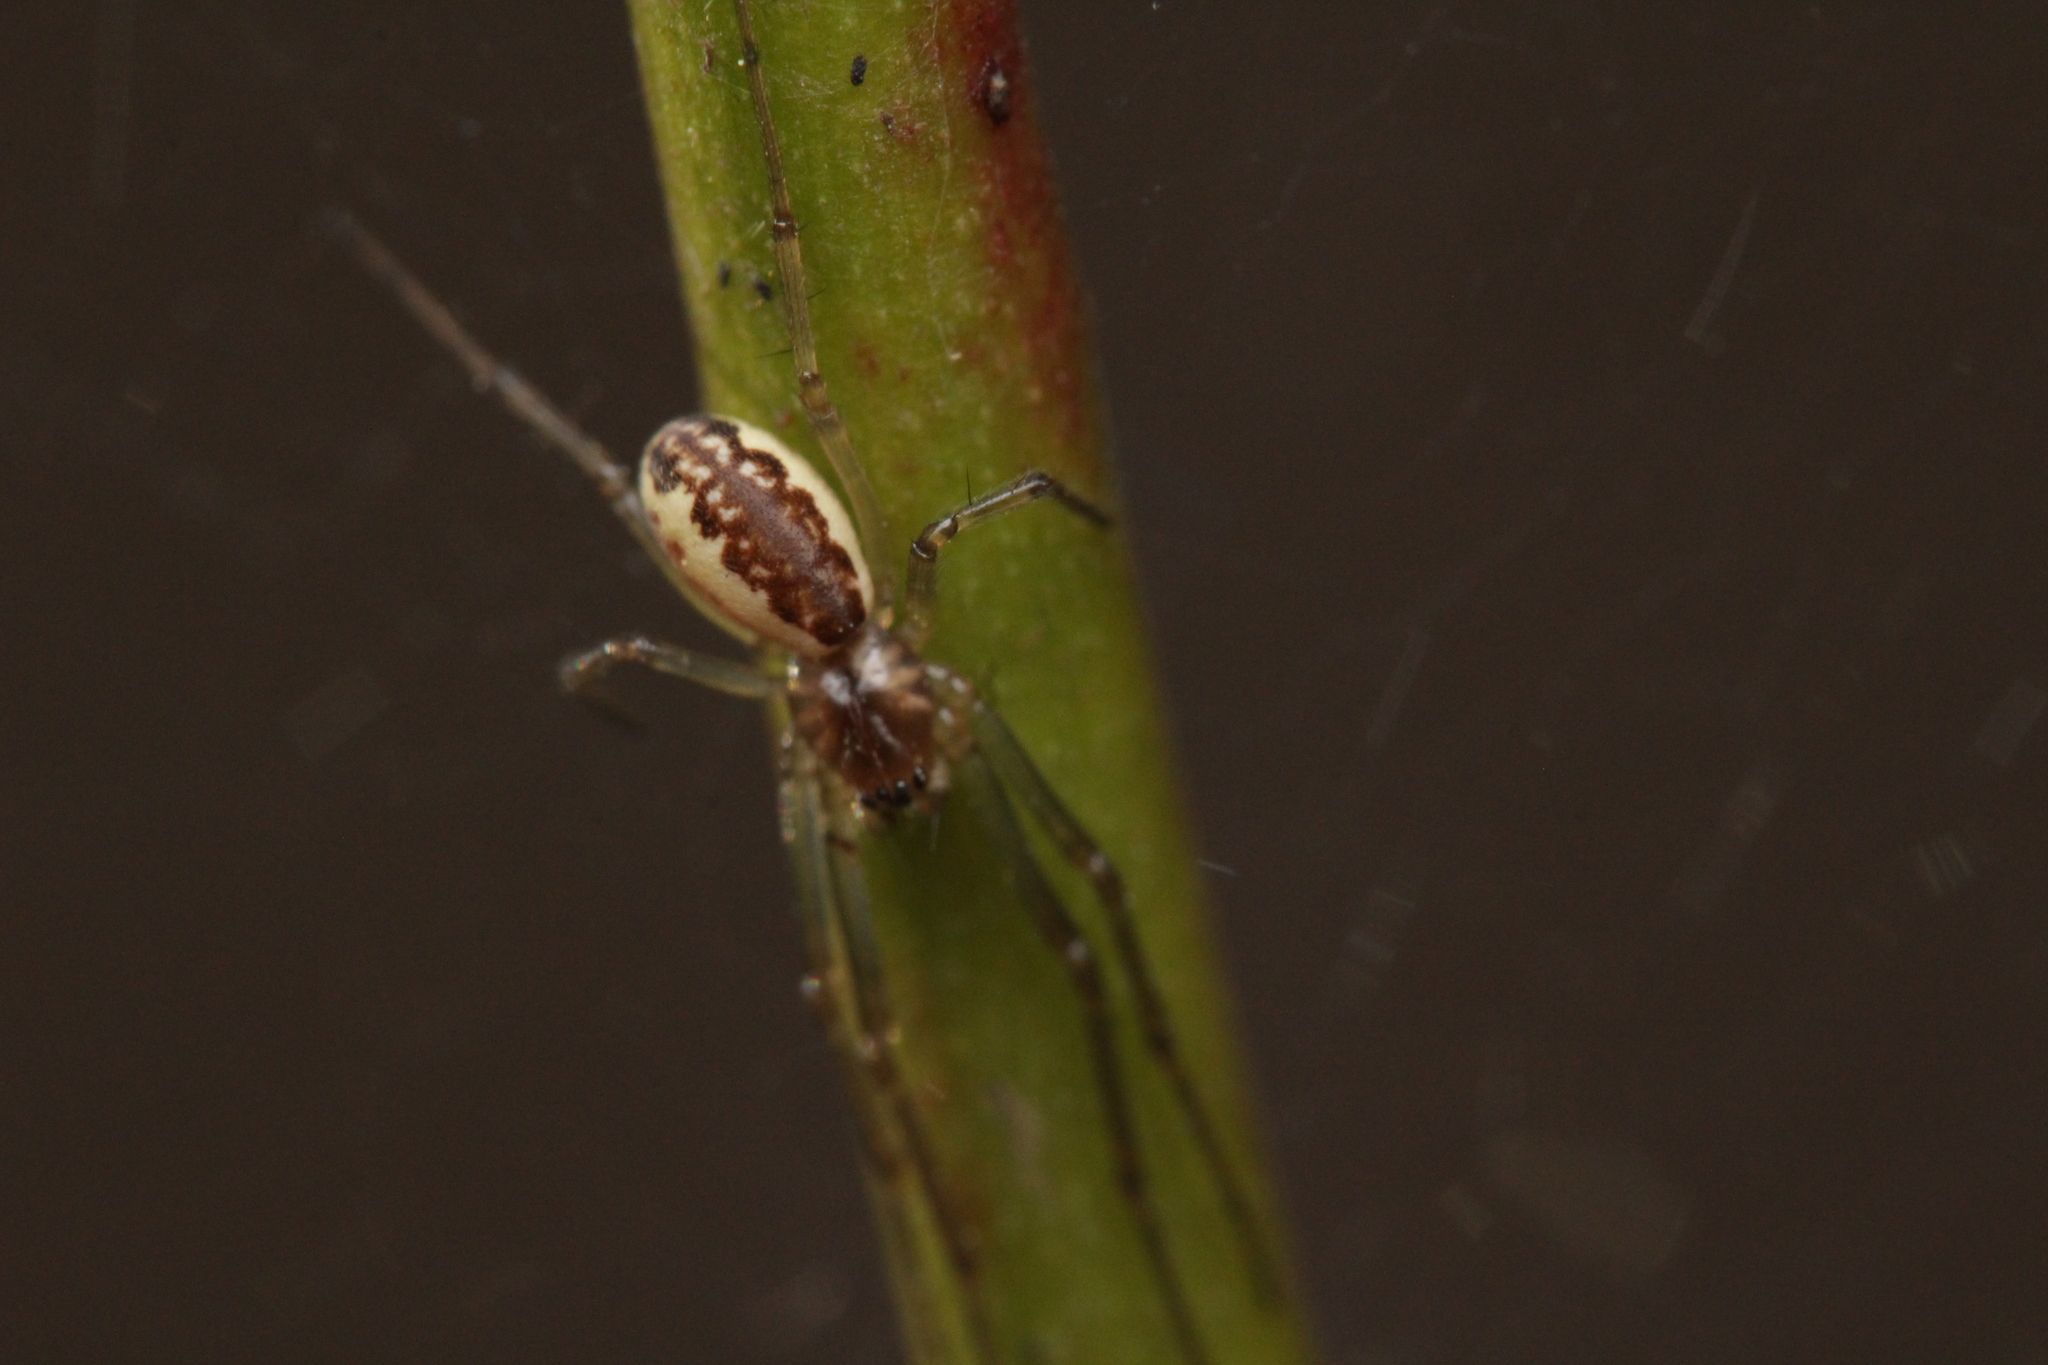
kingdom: Animalia
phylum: Arthropoda
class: Arachnida
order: Araneae
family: Linyphiidae
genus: Neriene
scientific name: Neriene peltata
